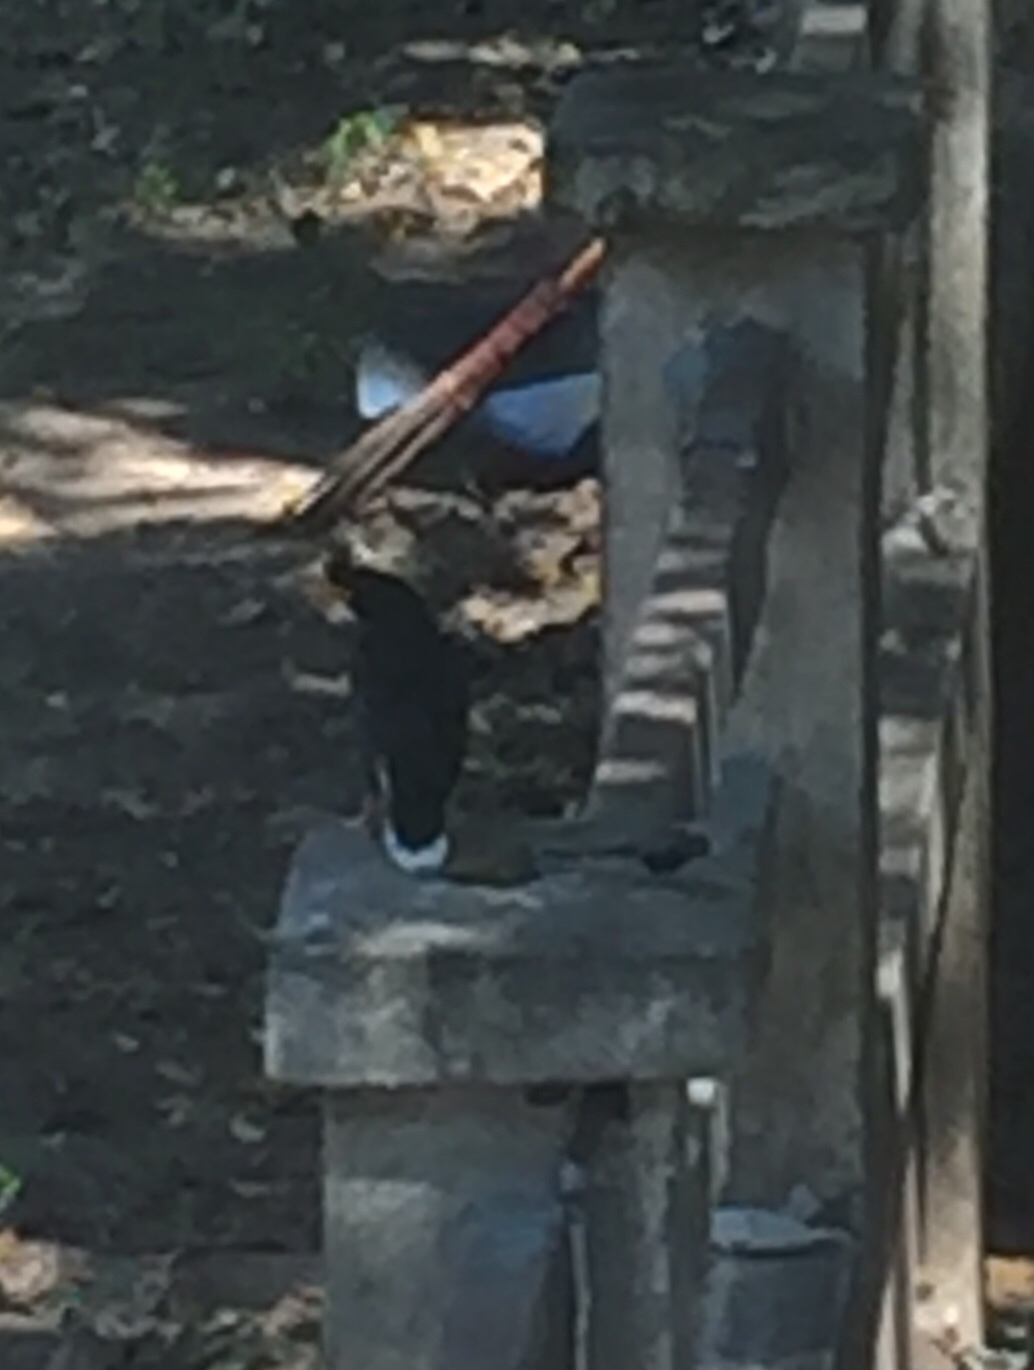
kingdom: Animalia
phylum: Chordata
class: Aves
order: Passeriformes
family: Sturnidae
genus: Acridotheres
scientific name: Acridotheres grandis
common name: Great myna
